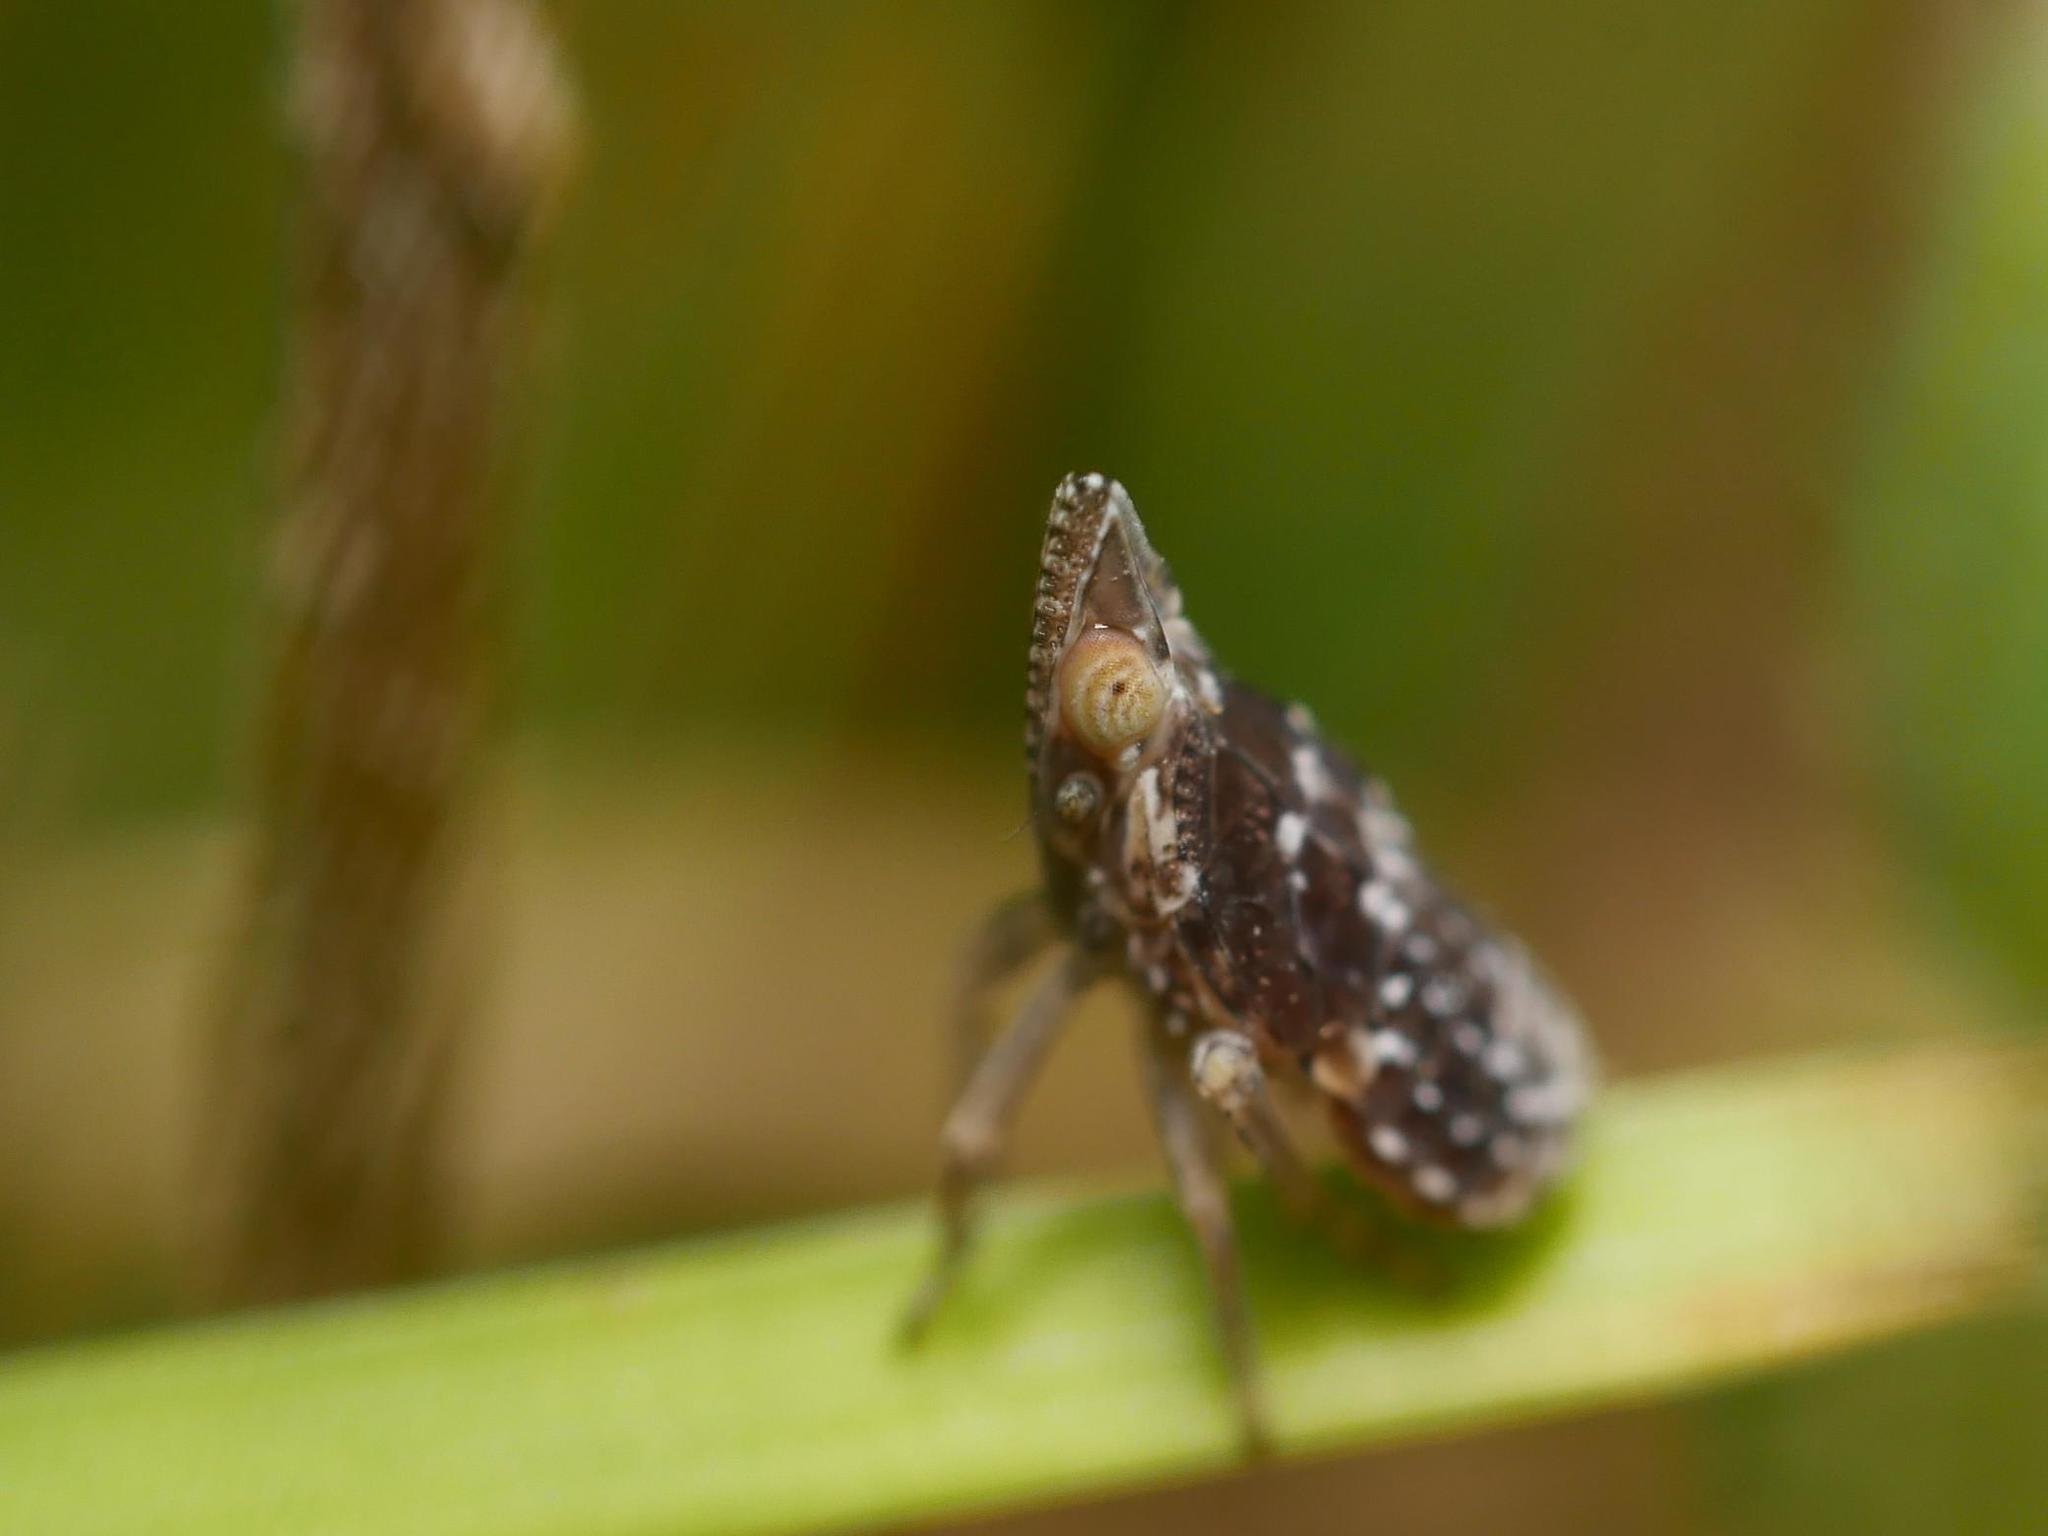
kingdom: Animalia
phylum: Arthropoda
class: Insecta
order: Hemiptera
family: Dictyopharidae
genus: Dictyophara
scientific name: Dictyophara europaea
